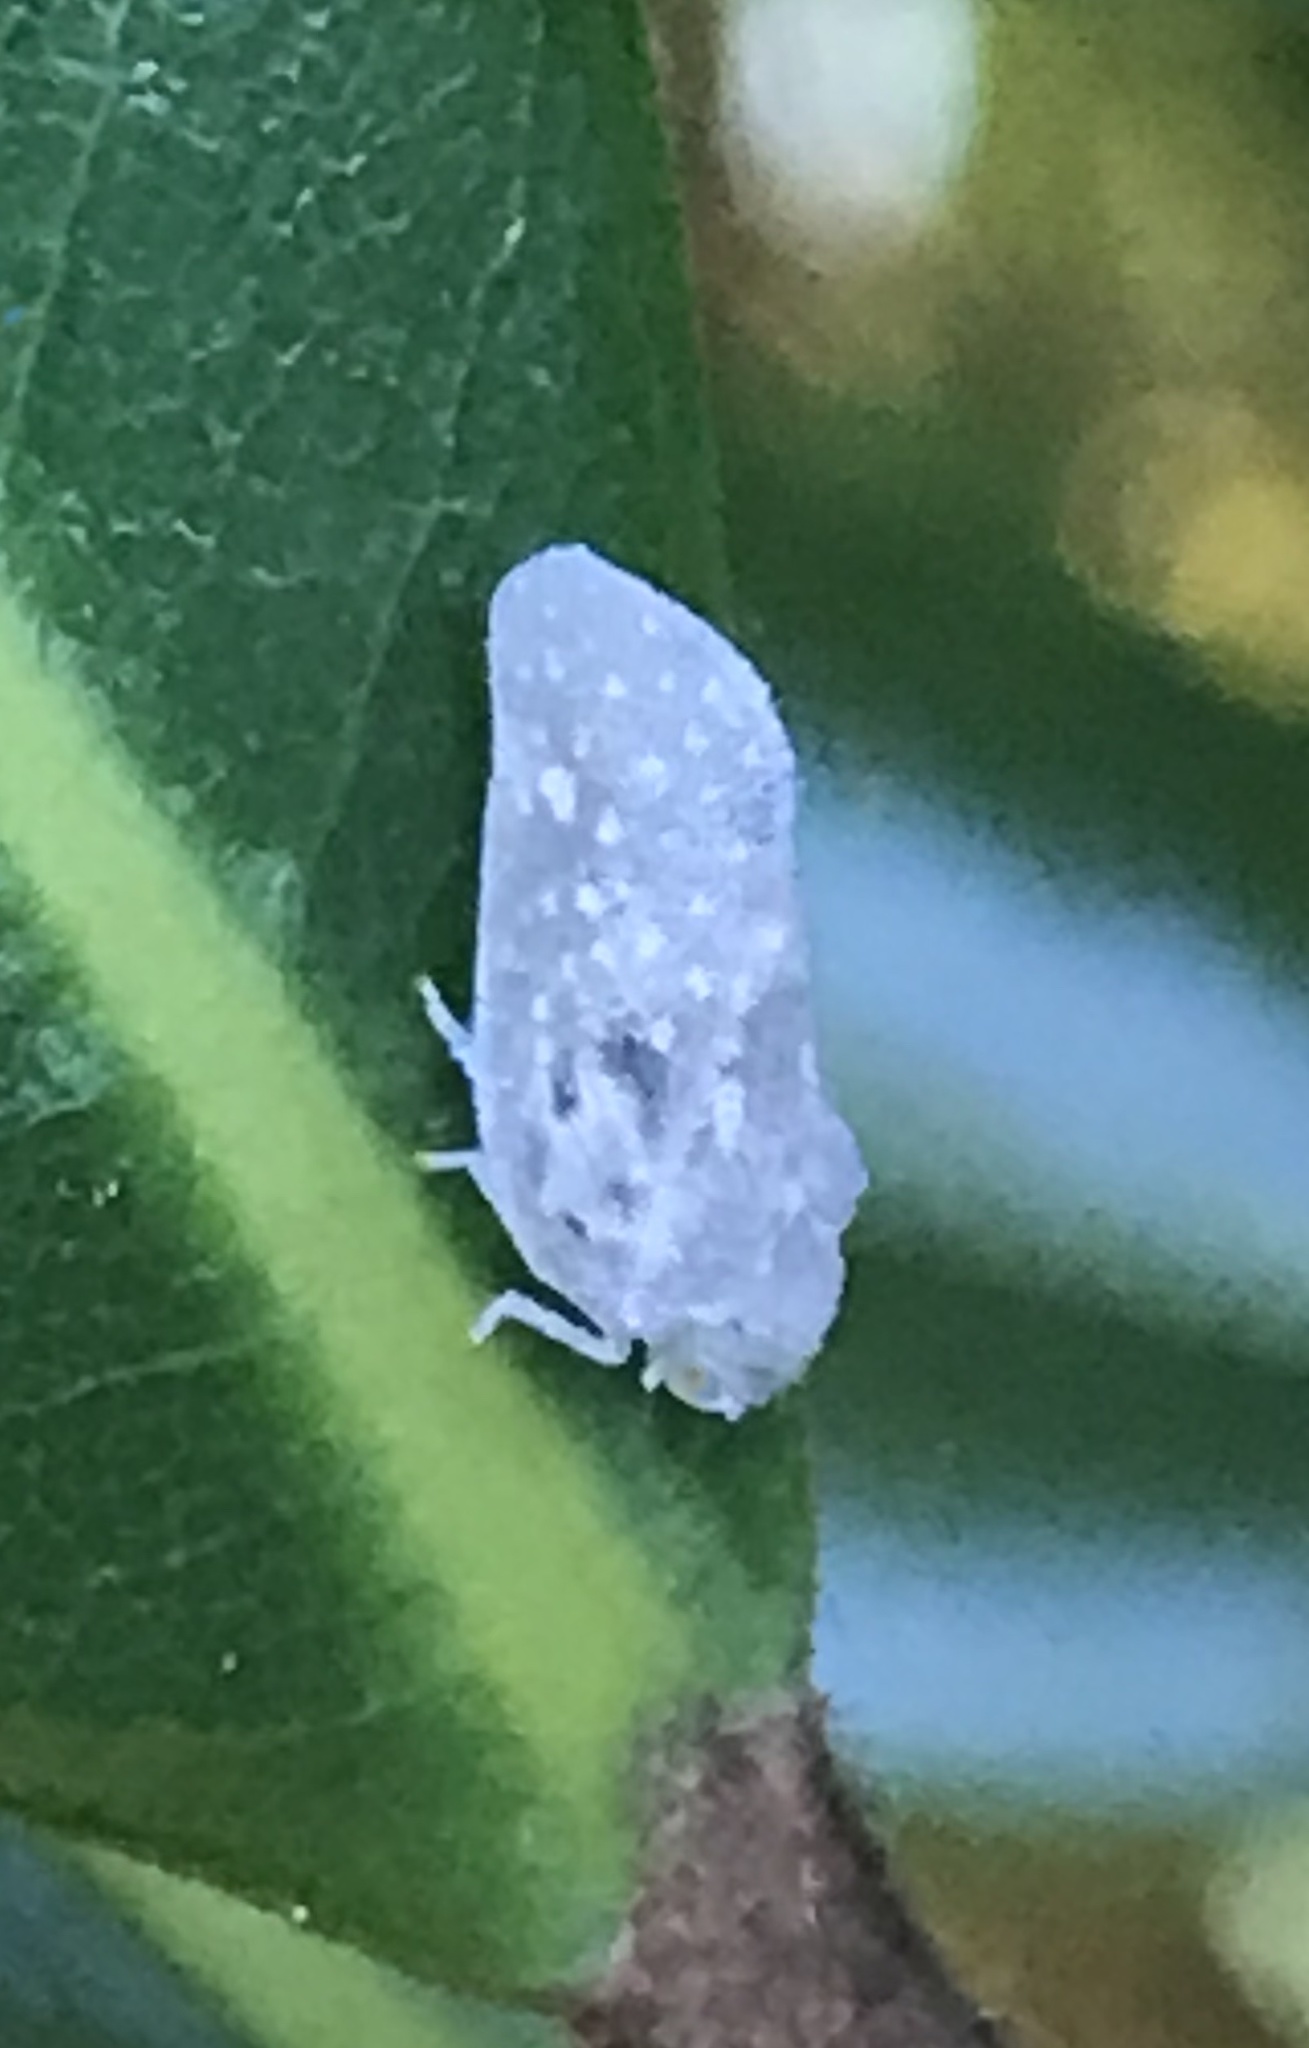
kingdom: Animalia
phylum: Arthropoda
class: Insecta
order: Hemiptera
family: Flatidae
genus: Metcalfa
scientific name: Metcalfa pruinosa
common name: Citrus flatid planthopper
